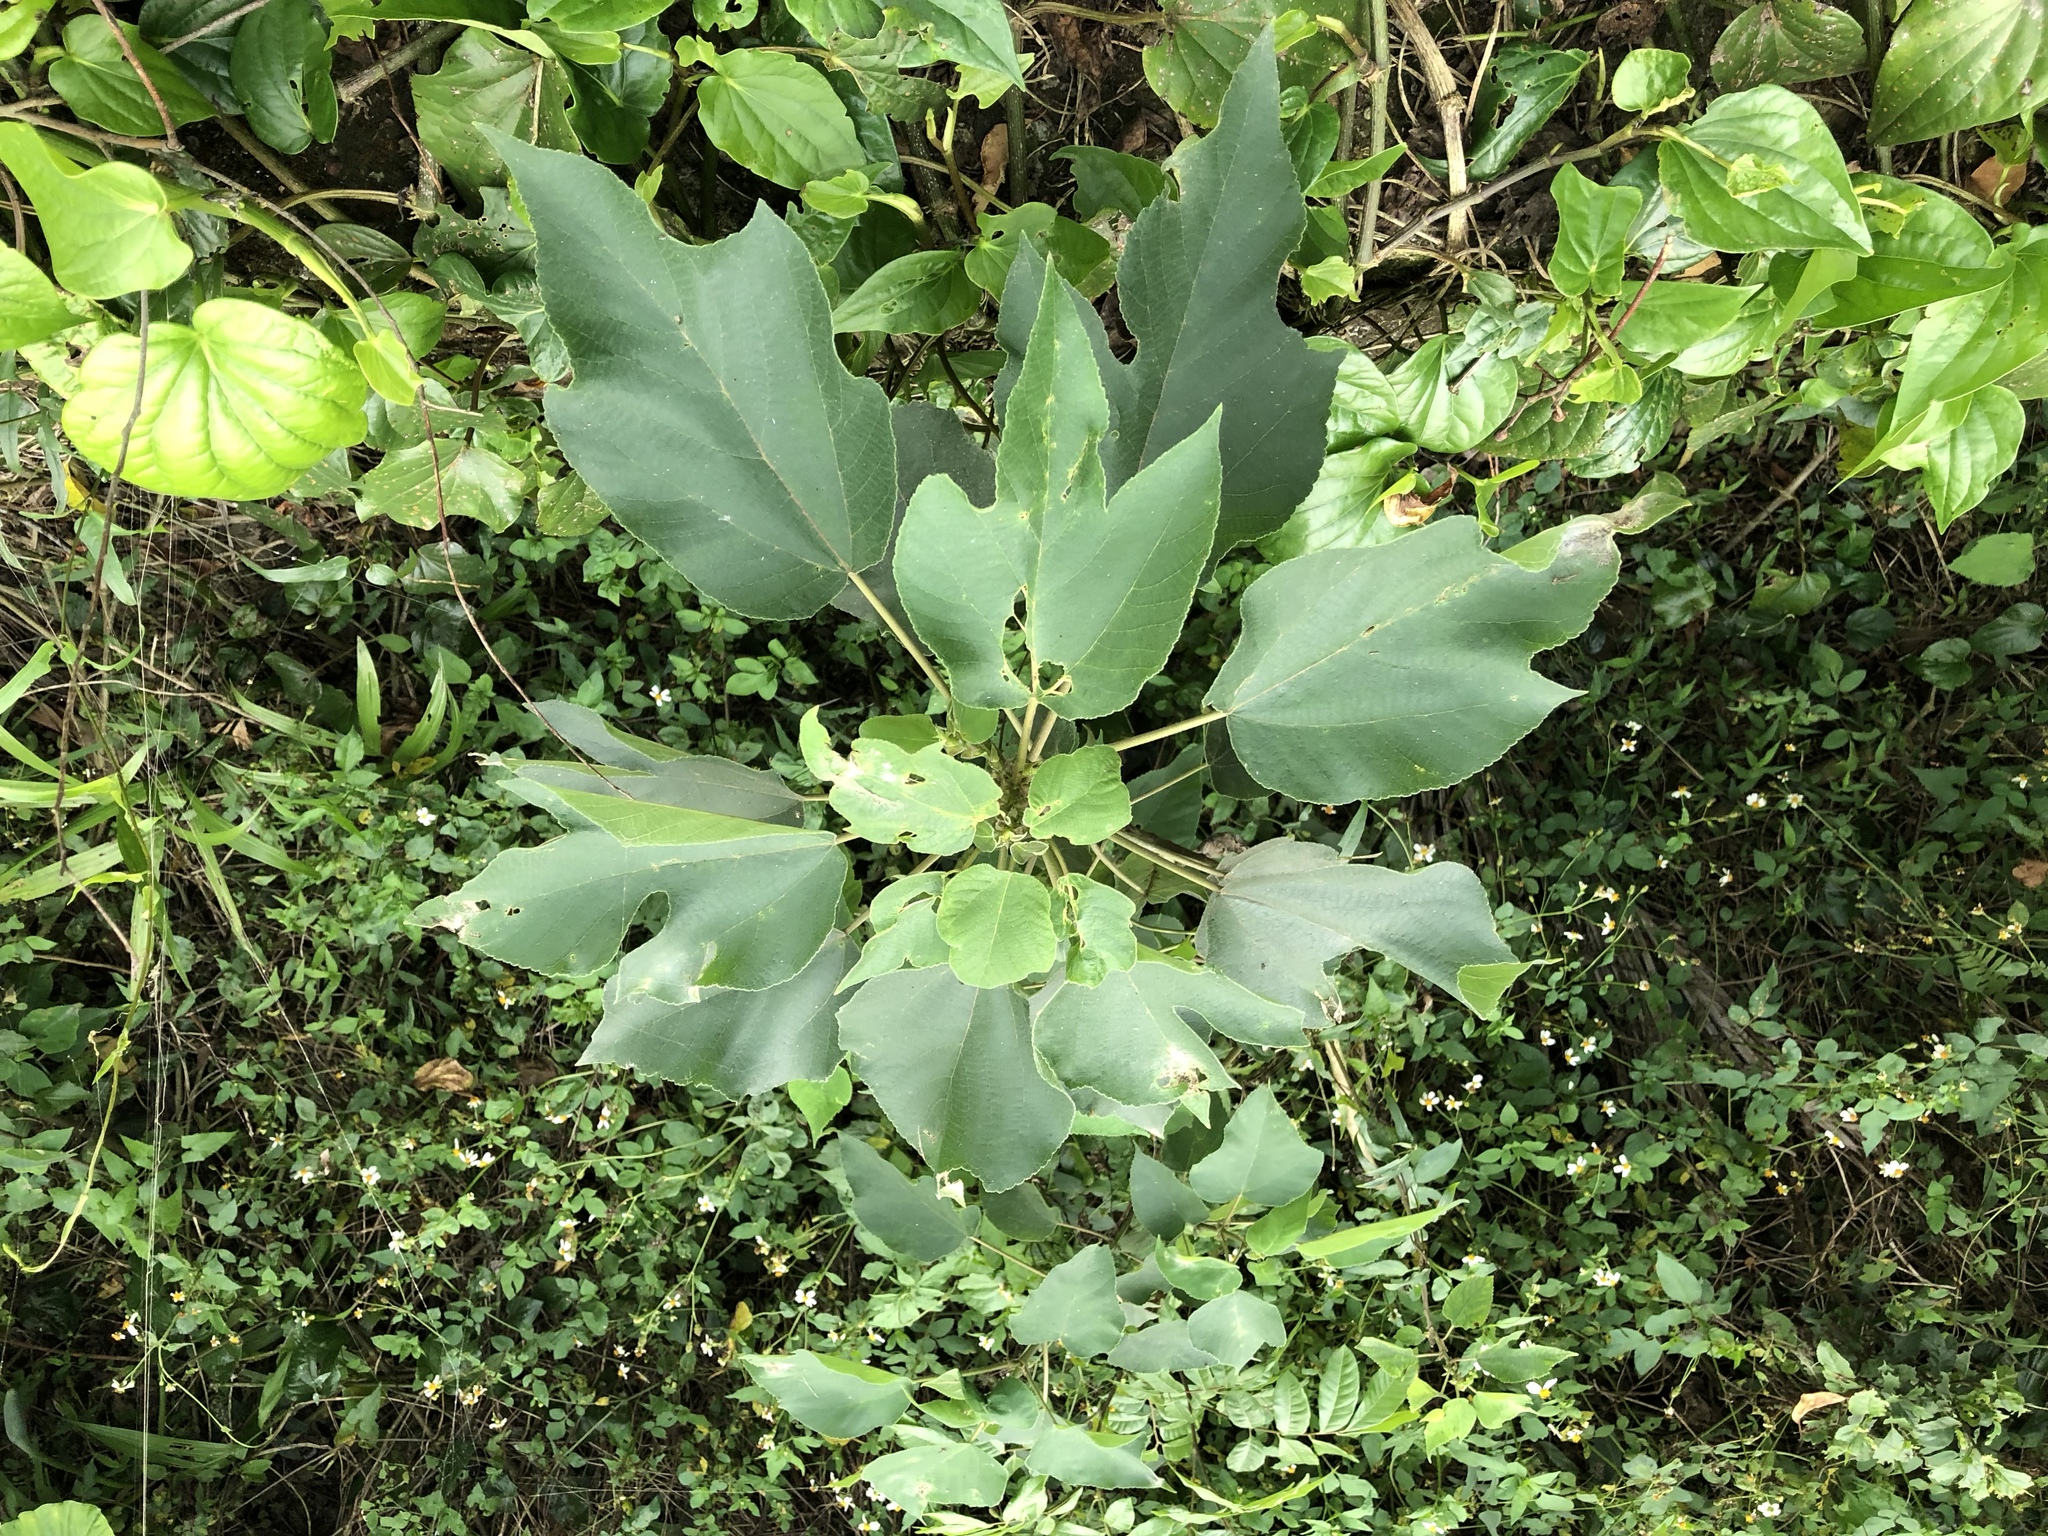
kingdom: Plantae
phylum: Tracheophyta
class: Magnoliopsida
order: Rosales
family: Moraceae
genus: Broussonetia
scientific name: Broussonetia papyrifera
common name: Paper mulberry
